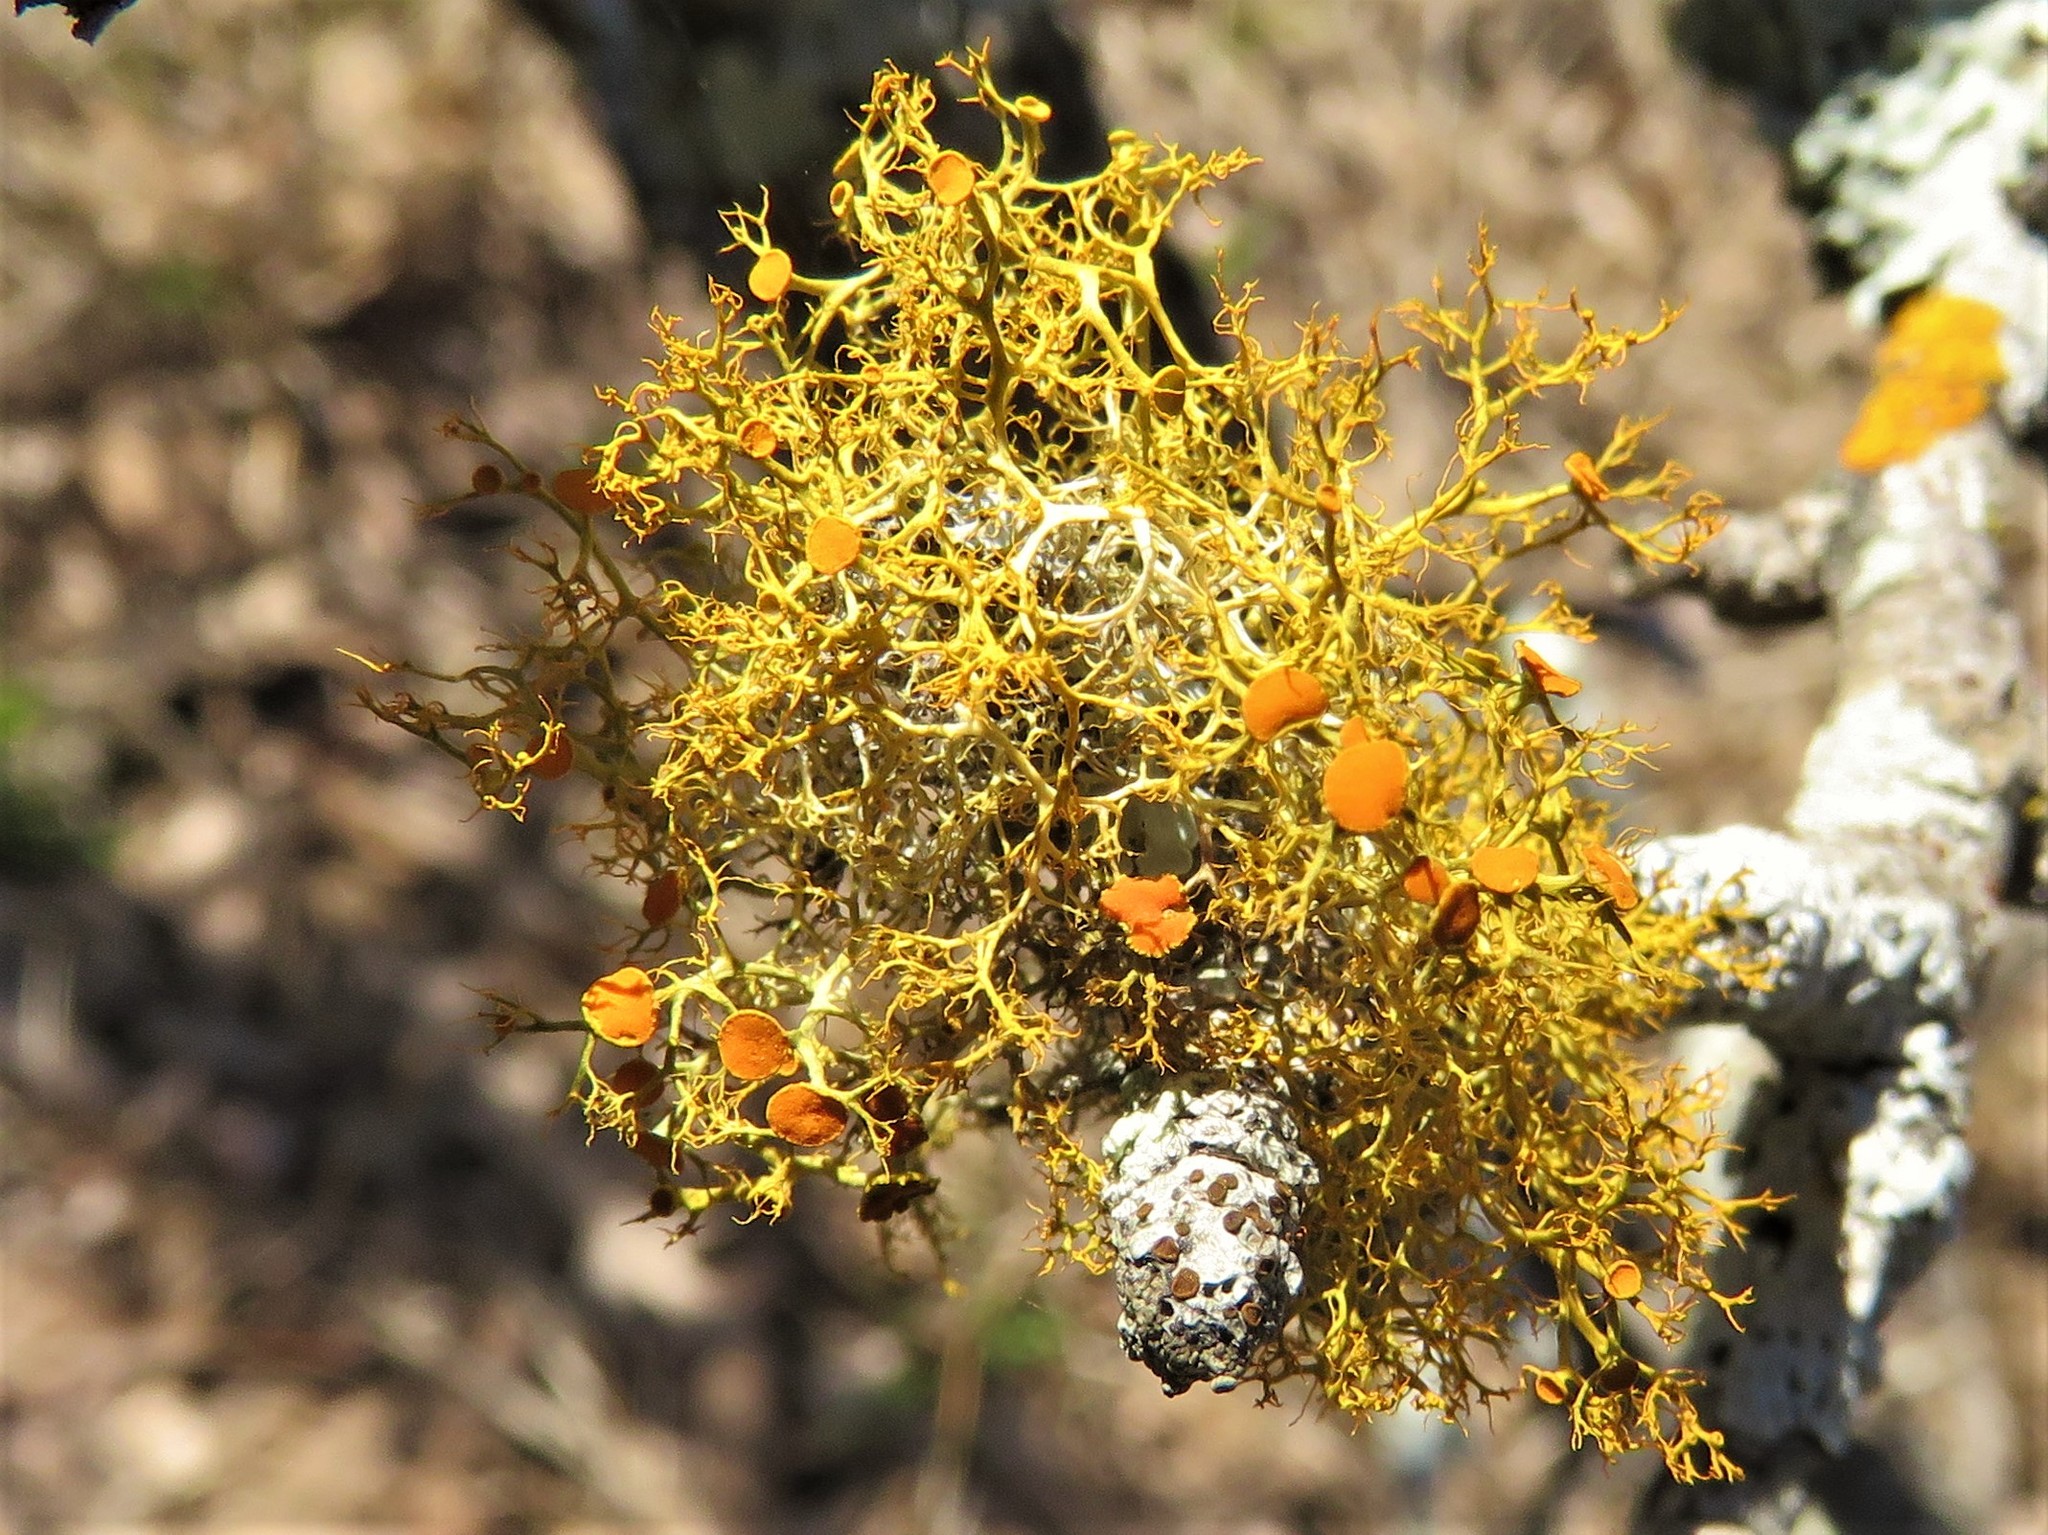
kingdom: Fungi
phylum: Ascomycota
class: Lecanoromycetes
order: Teloschistales
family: Teloschistaceae
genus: Teloschistes
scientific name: Teloschistes exilis
